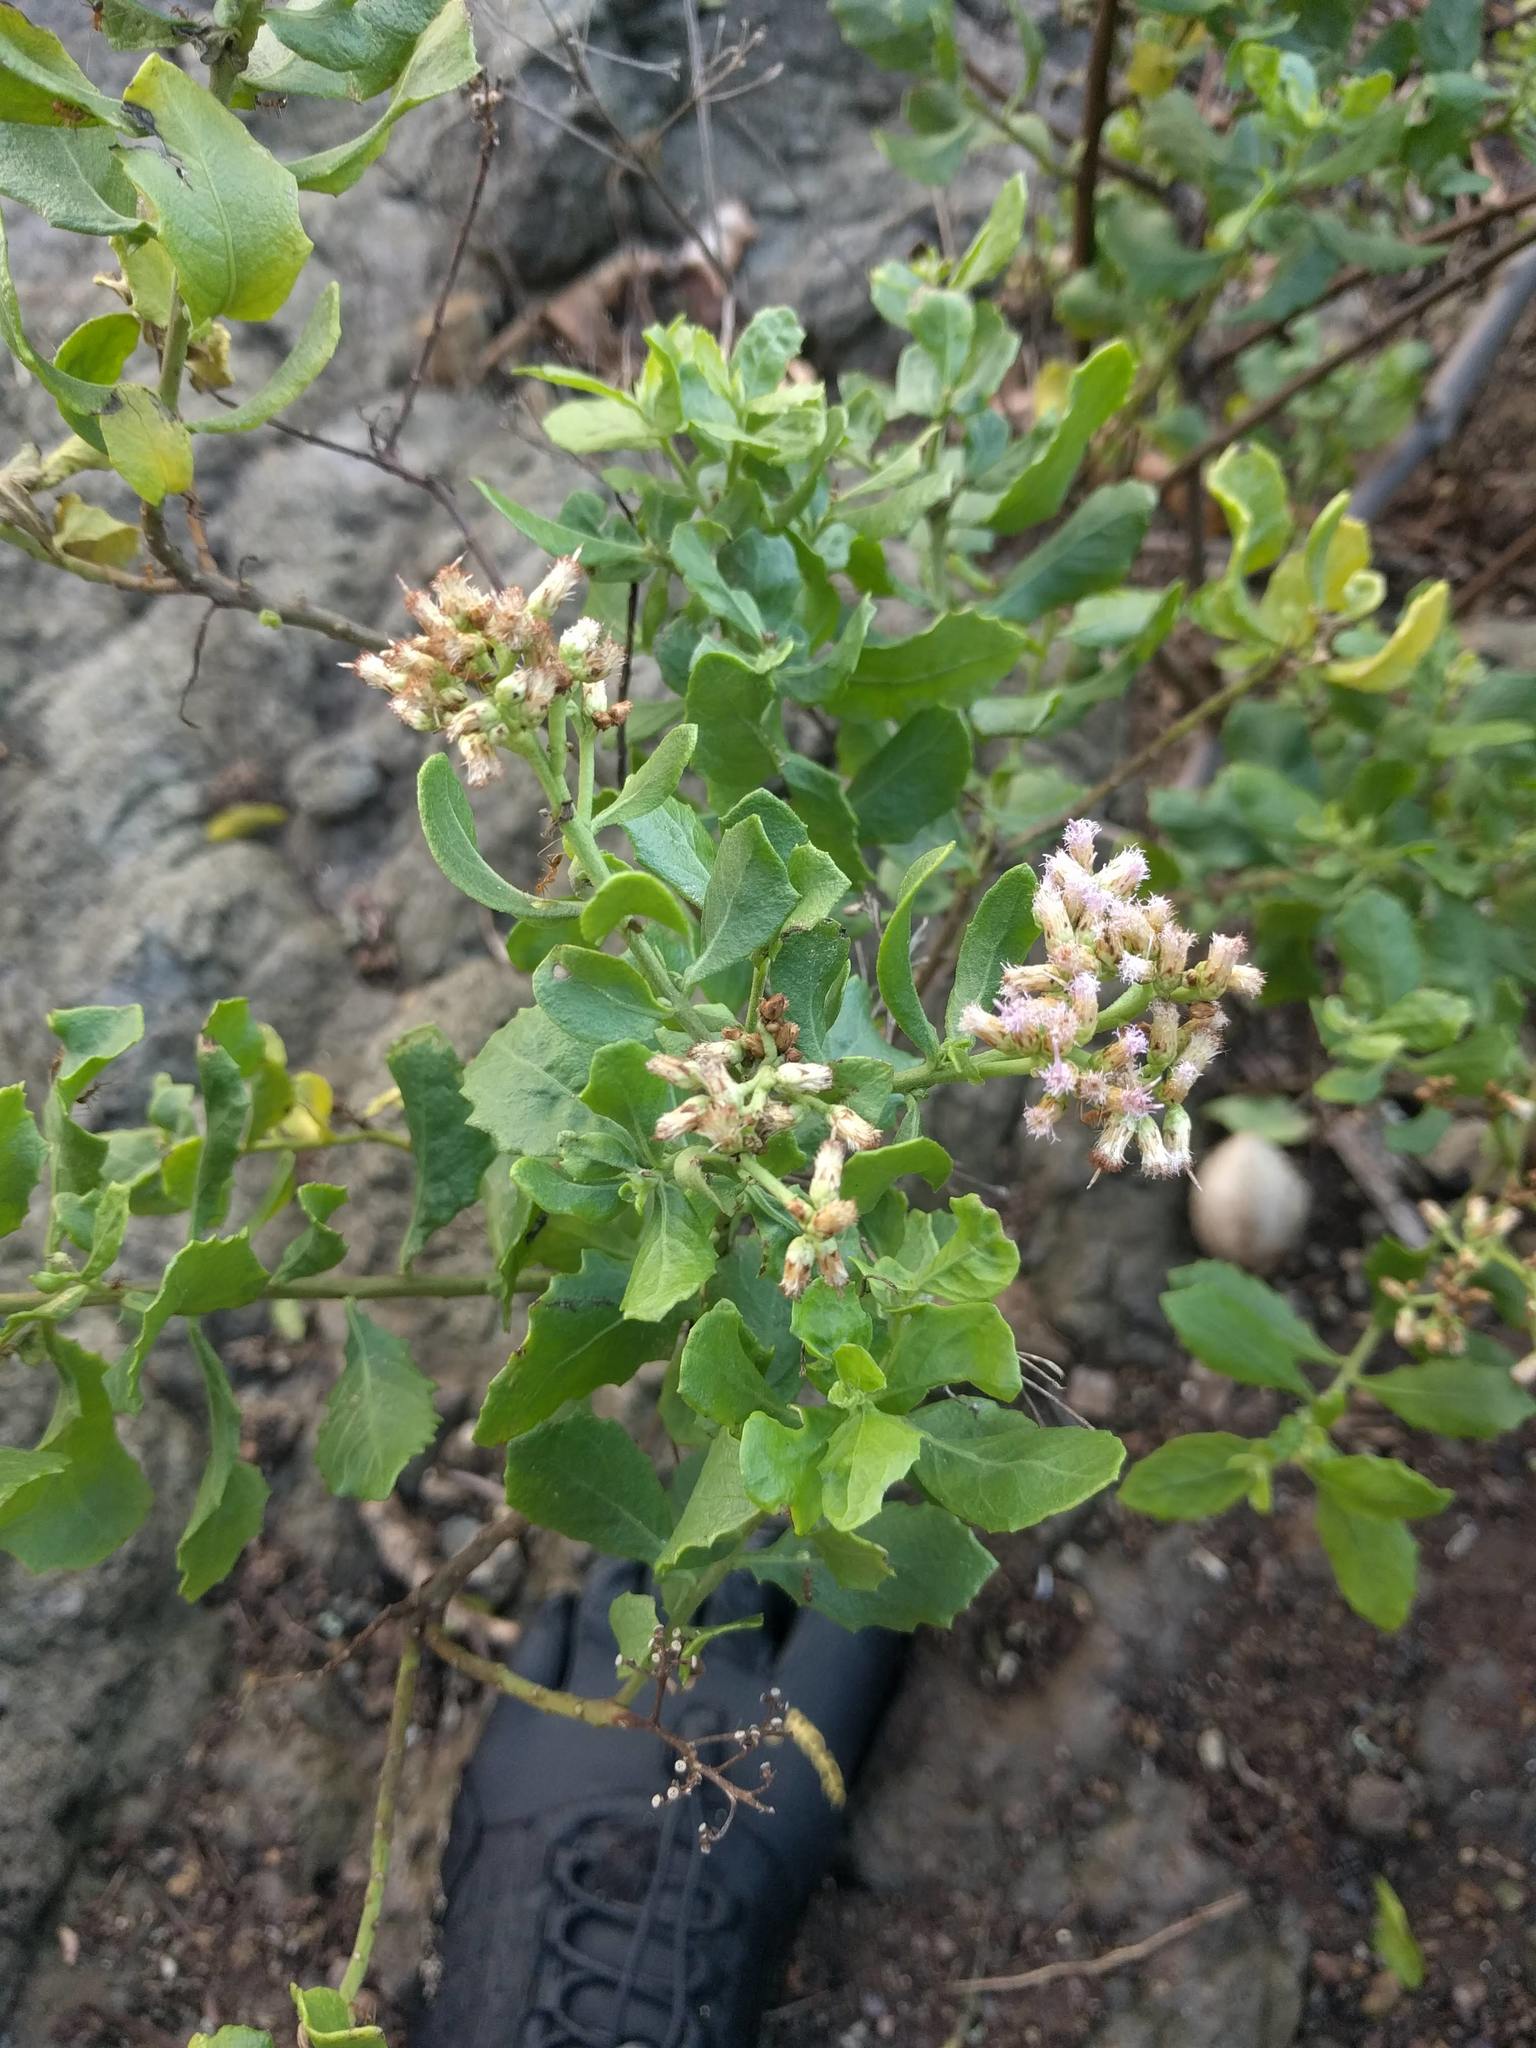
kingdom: Plantae
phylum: Tracheophyta
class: Magnoliopsida
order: Asterales
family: Asteraceae
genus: Pluchea
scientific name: Pluchea indica
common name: Indian fleabane
